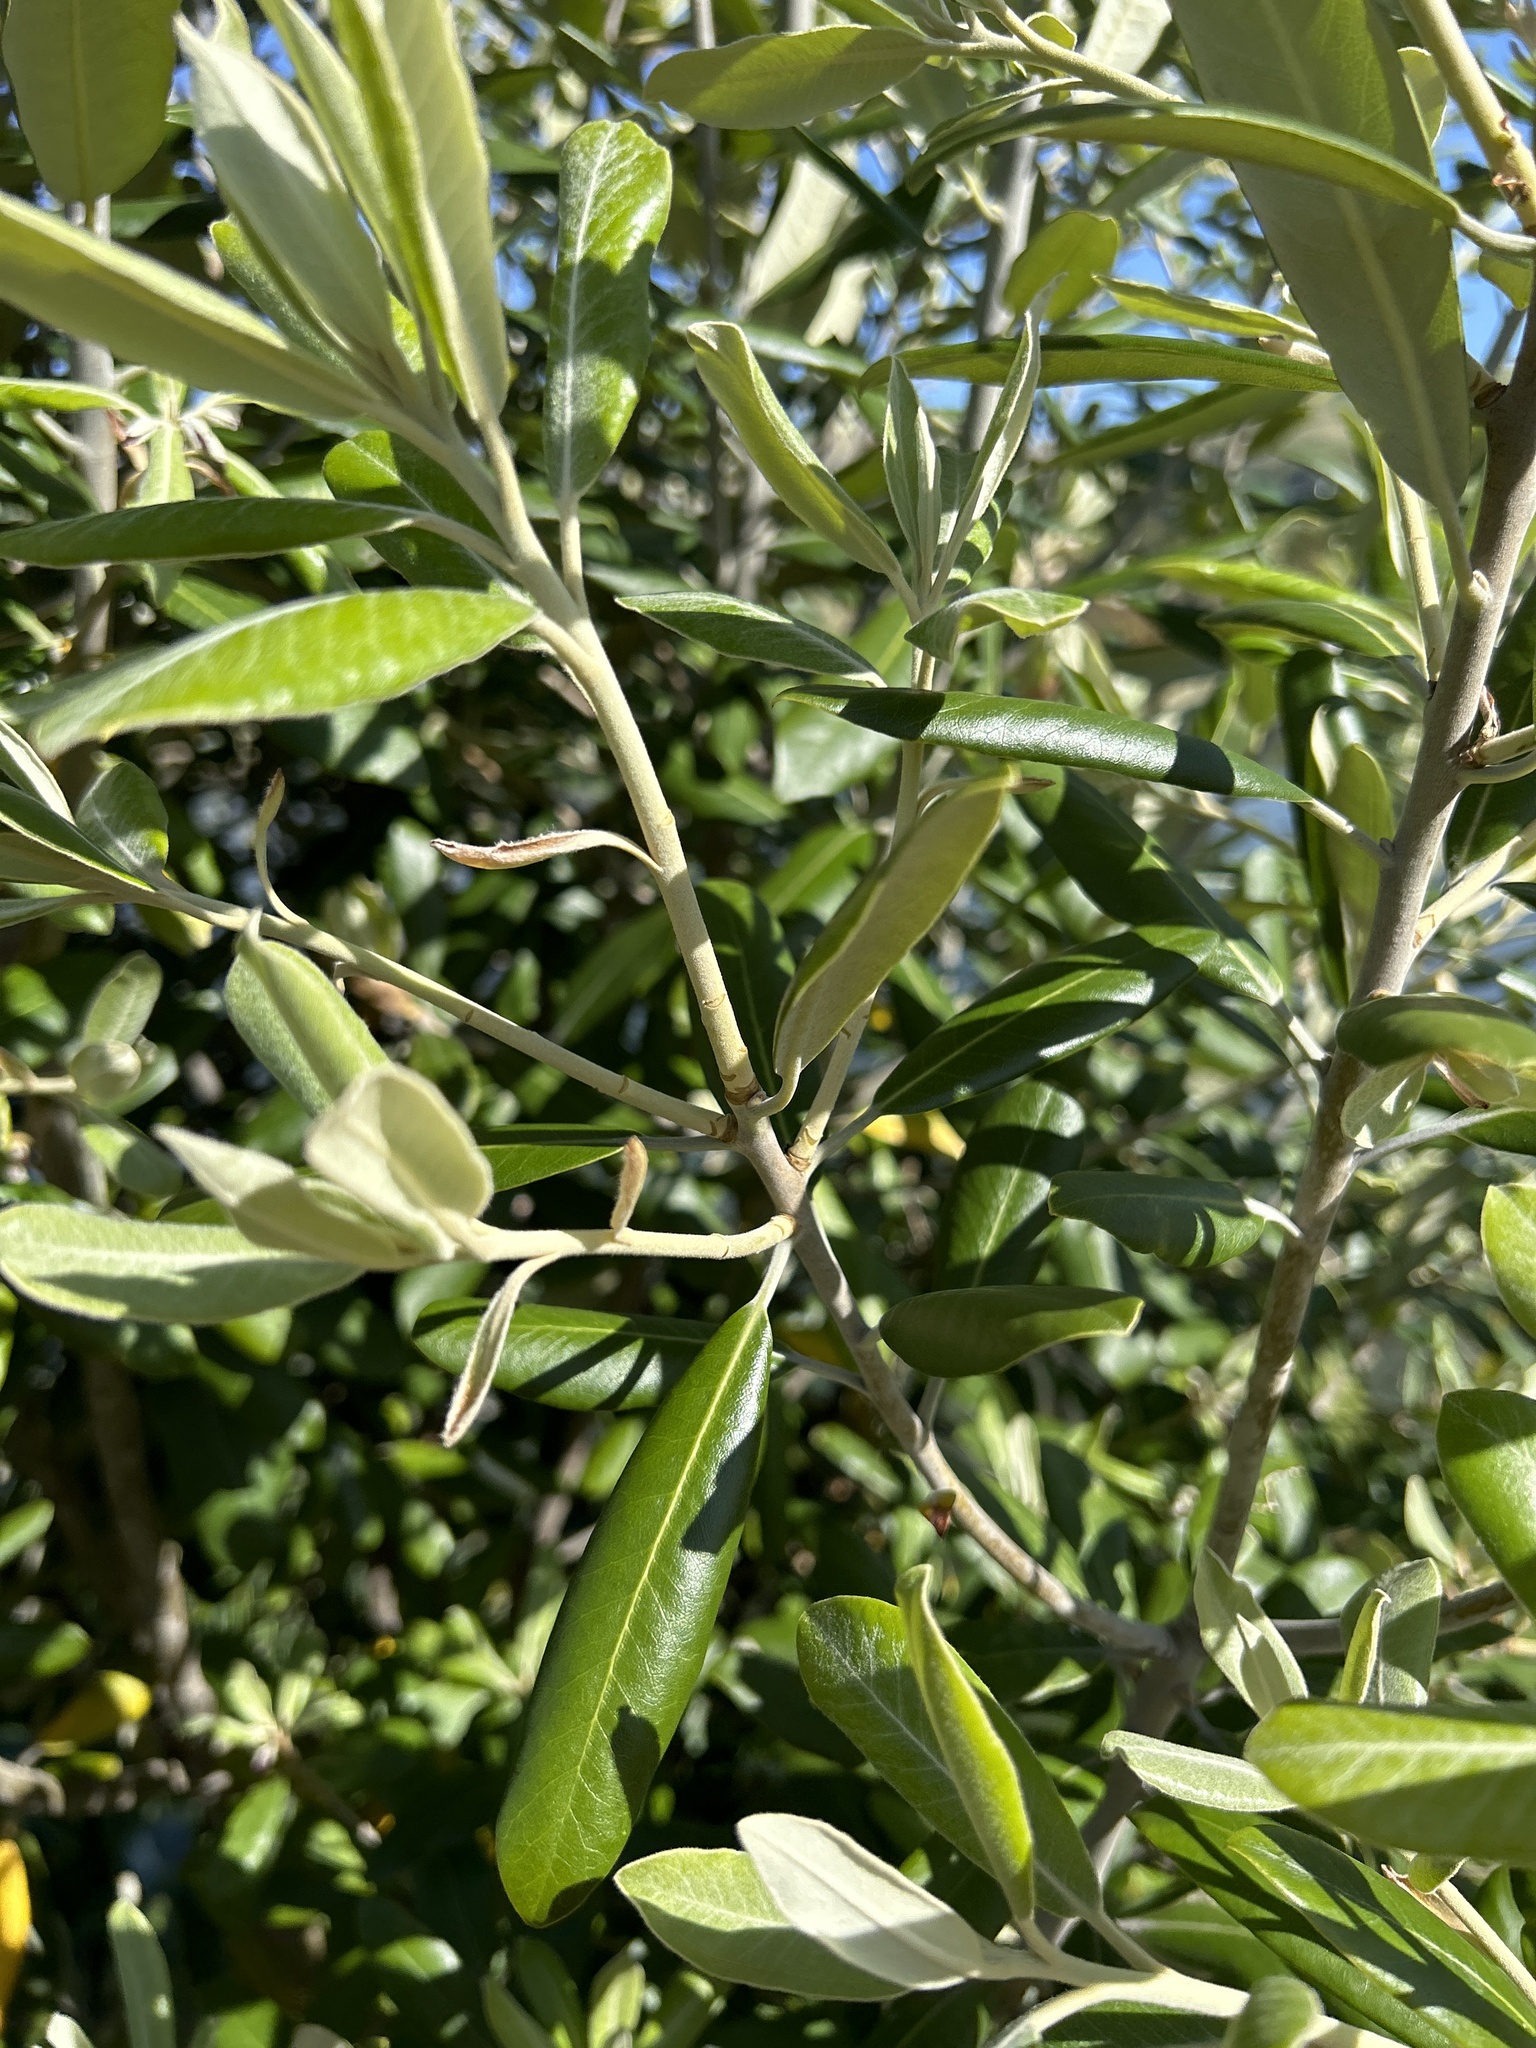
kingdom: Plantae
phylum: Tracheophyta
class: Magnoliopsida
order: Apiales
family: Pittosporaceae
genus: Pittosporum
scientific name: Pittosporum crassifolium
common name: Karo
